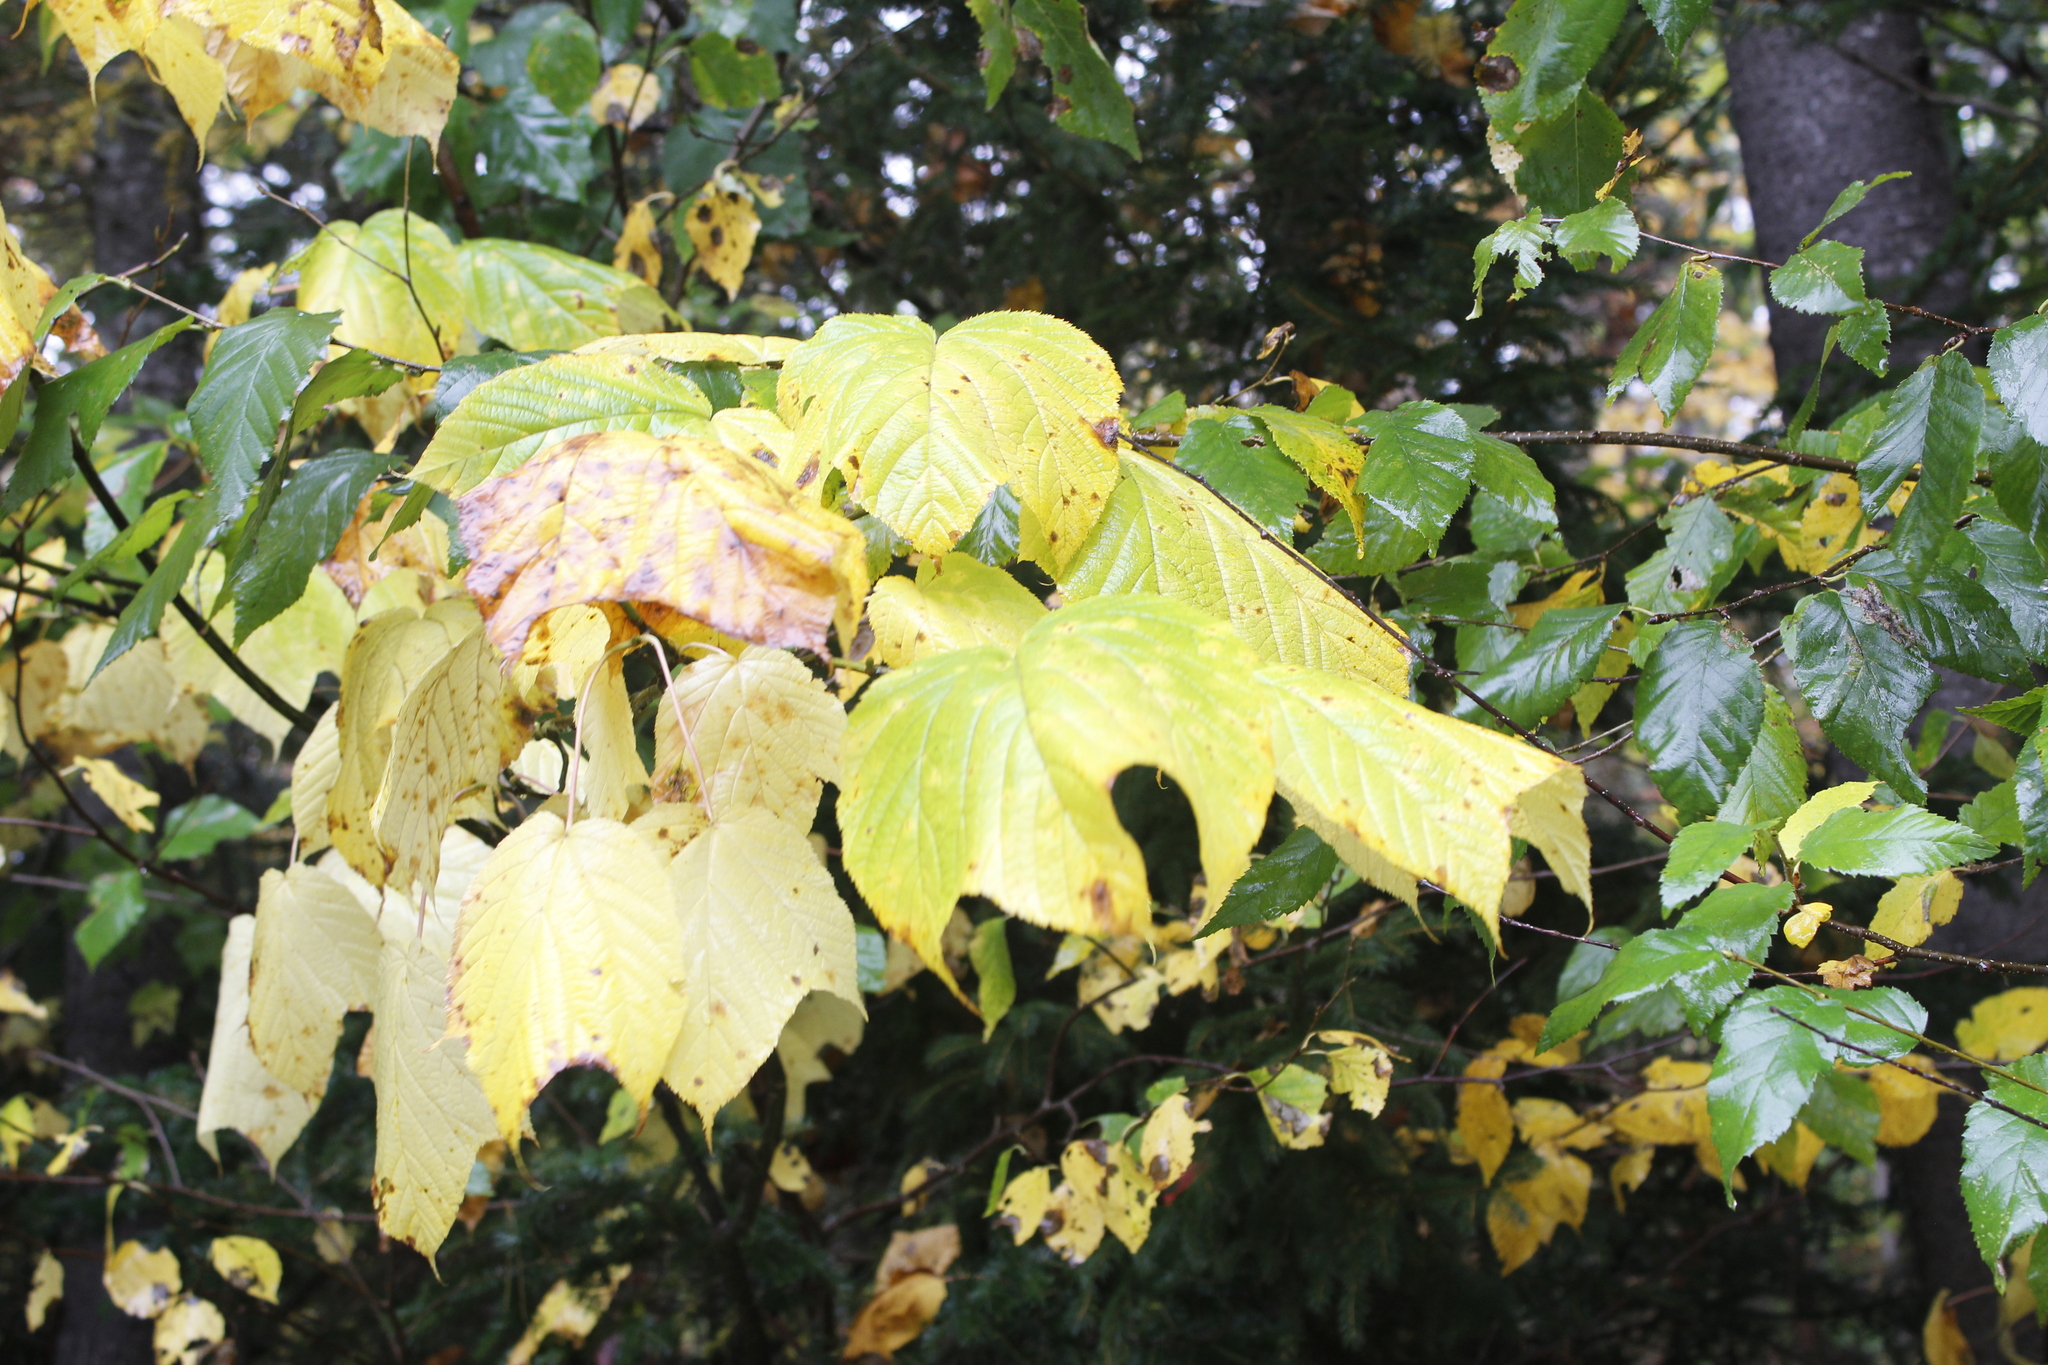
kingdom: Plantae
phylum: Tracheophyta
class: Magnoliopsida
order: Sapindales
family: Sapindaceae
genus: Acer
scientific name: Acer pensylvanicum
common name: Moosewood
